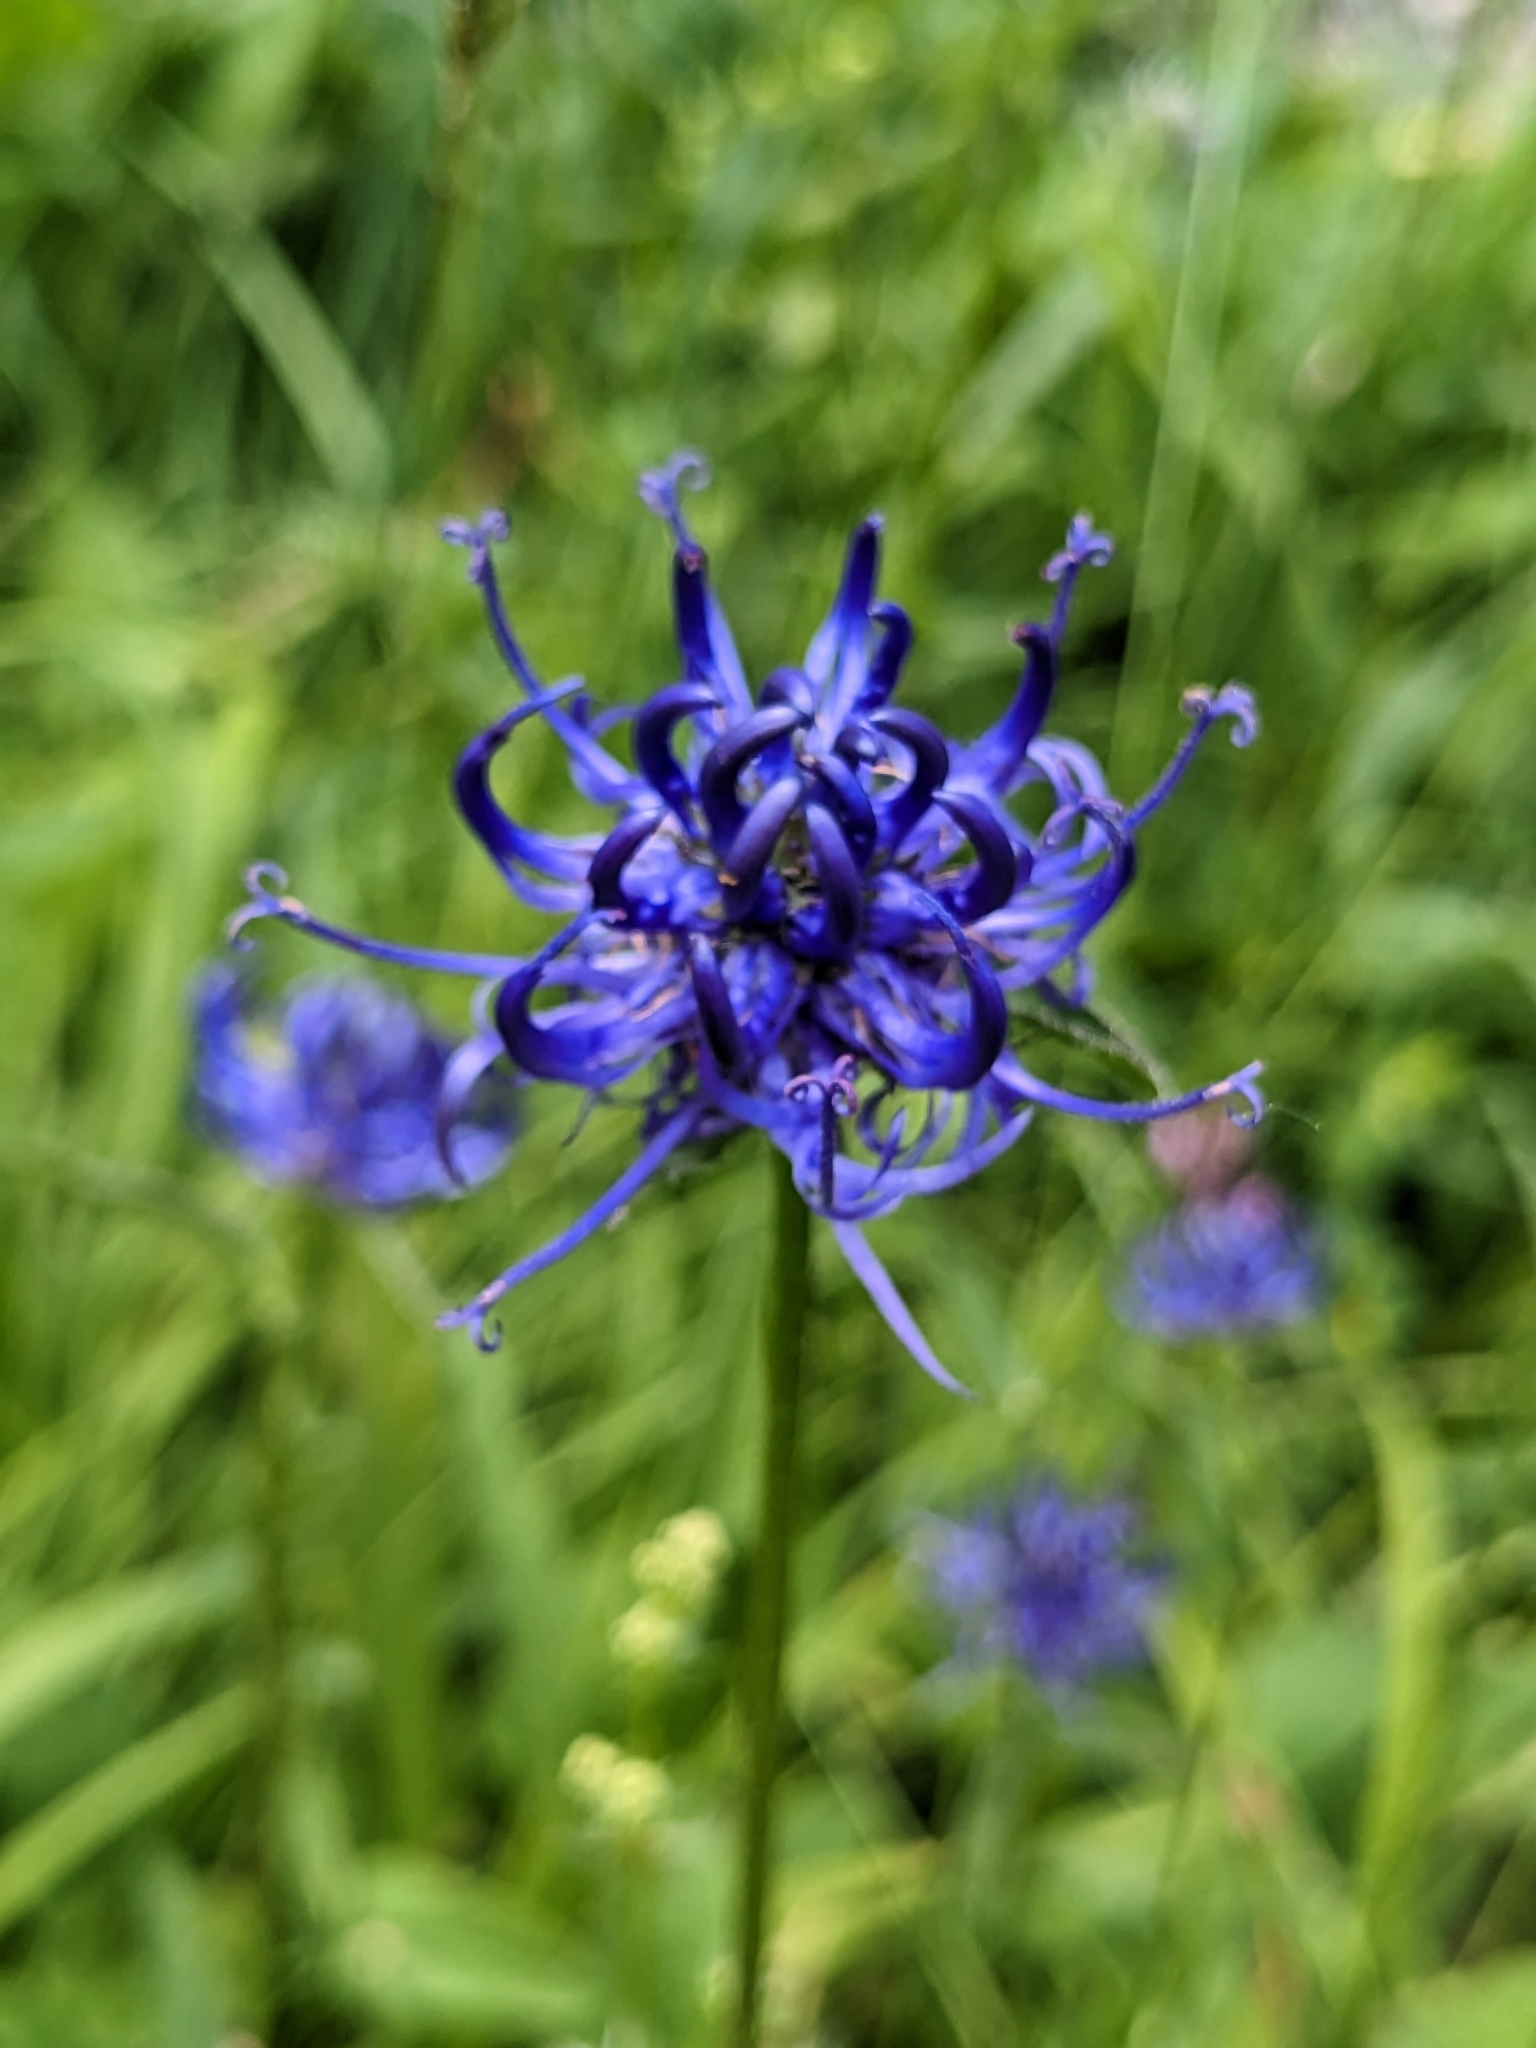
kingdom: Plantae
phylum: Tracheophyta
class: Magnoliopsida
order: Asterales
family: Campanulaceae
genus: Phyteuma
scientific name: Phyteuma orbiculare
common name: Round-headed rampion
